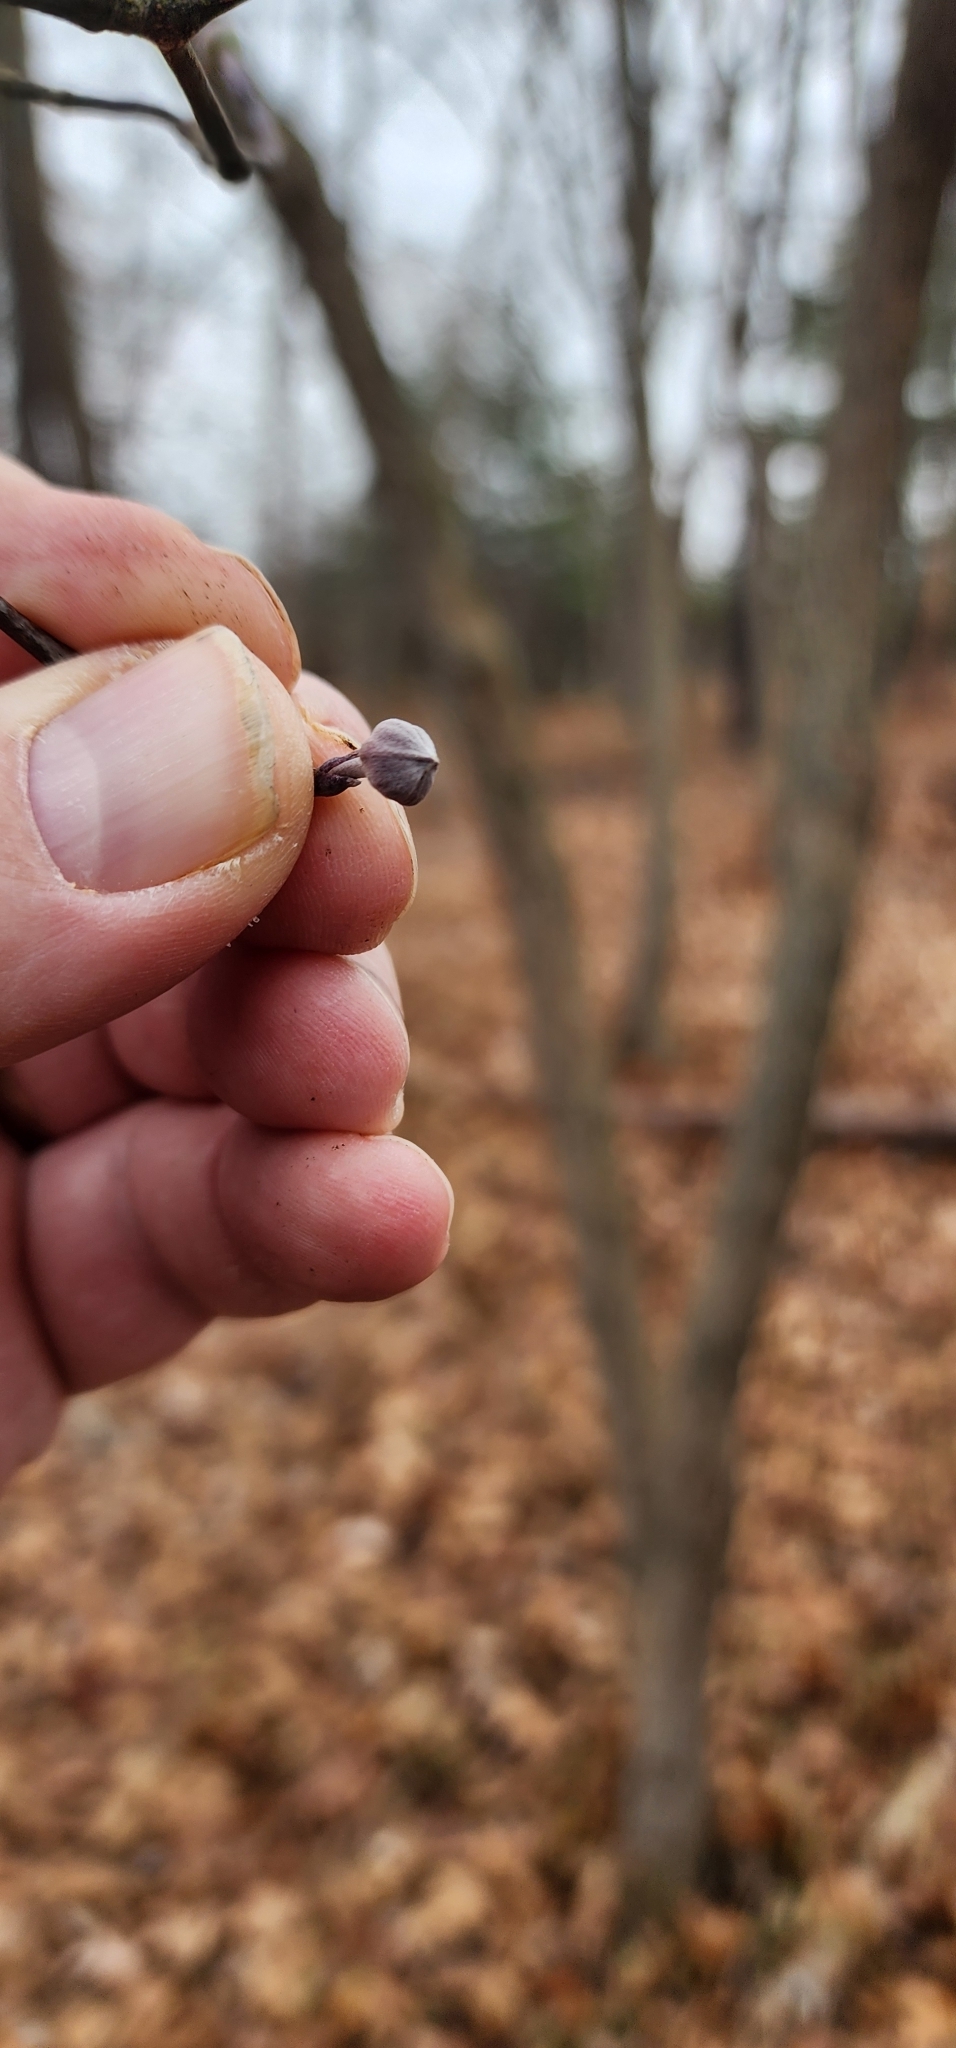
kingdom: Plantae
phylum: Tracheophyta
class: Magnoliopsida
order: Cornales
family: Cornaceae
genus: Cornus
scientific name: Cornus florida
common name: Flowering dogwood
